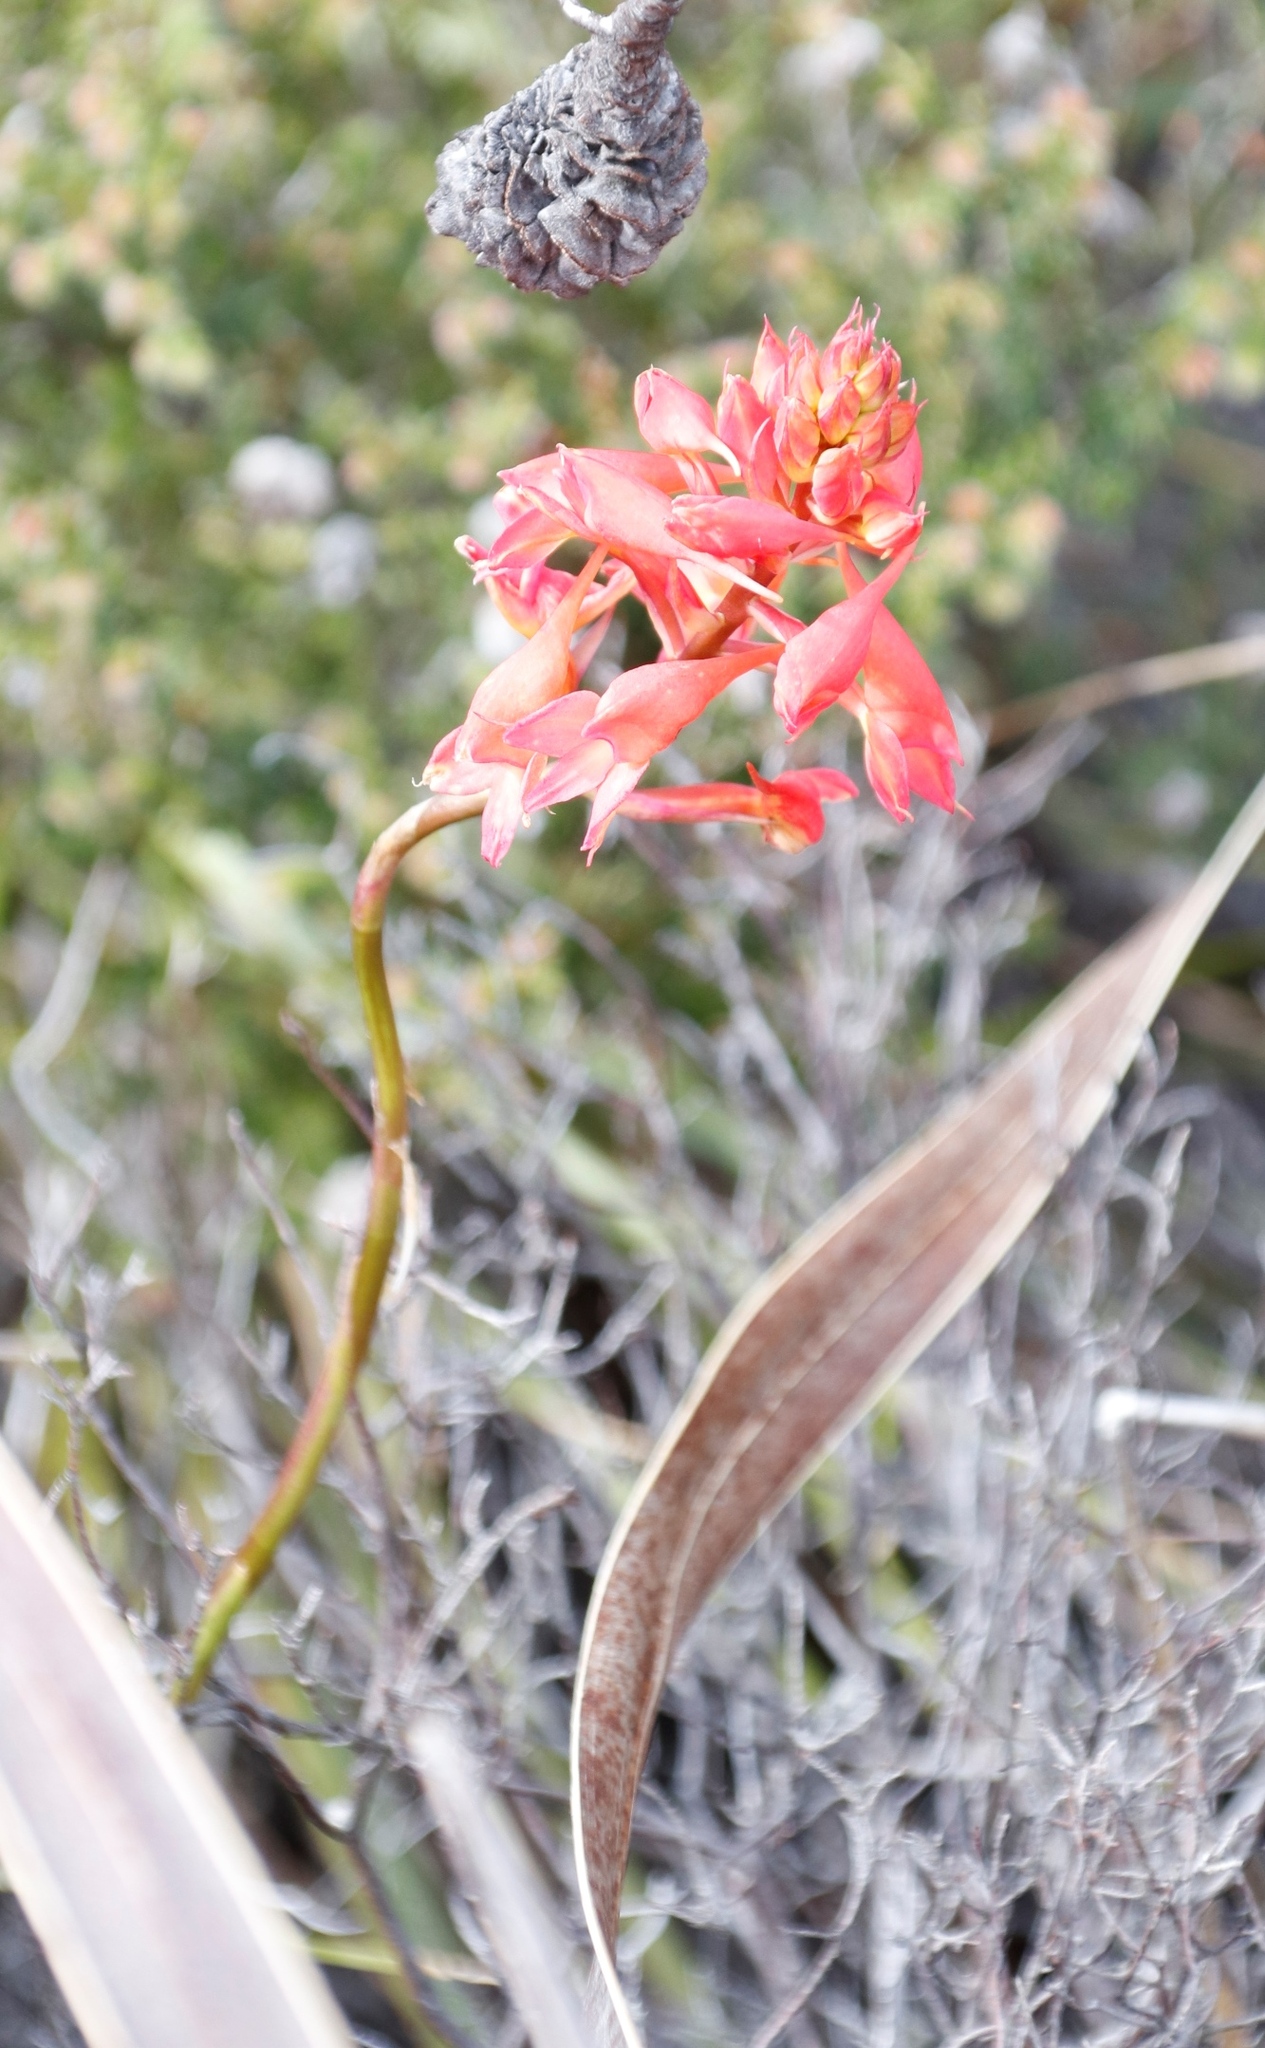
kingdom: Plantae
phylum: Tracheophyta
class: Liliopsida
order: Asparagales
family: Orchidaceae
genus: Disa
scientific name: Disa ferruginea
